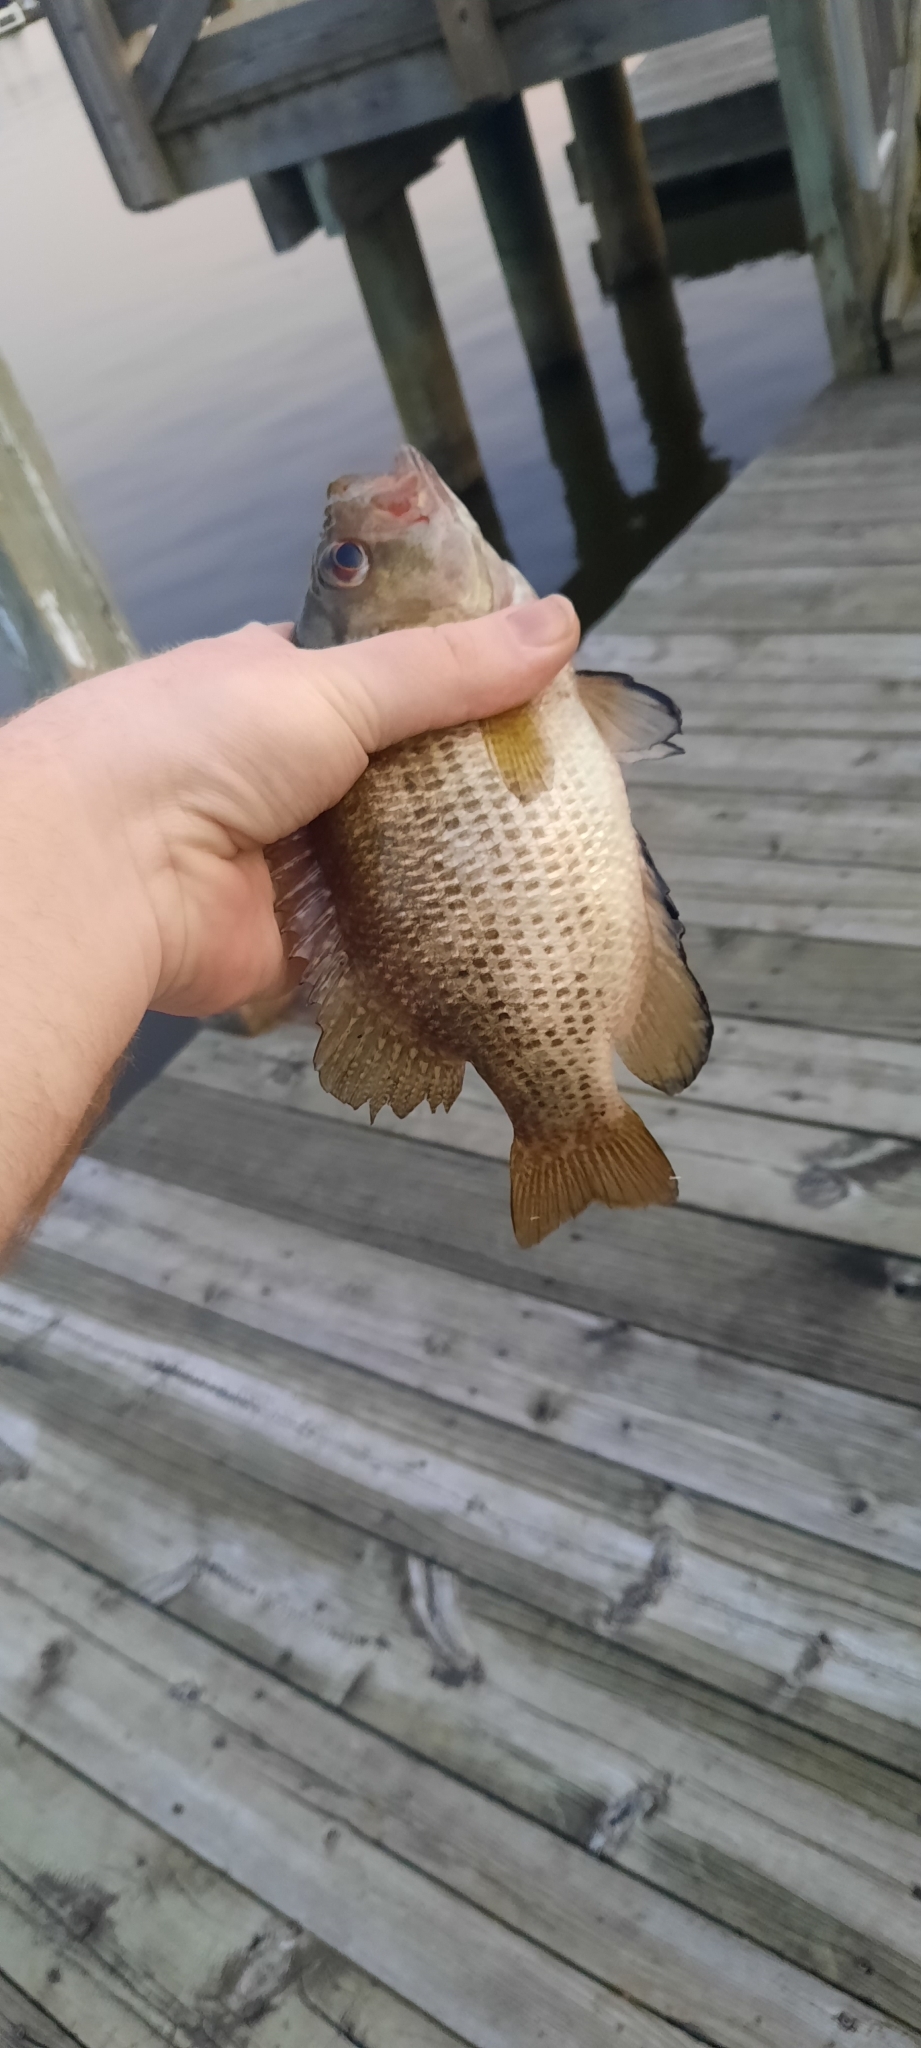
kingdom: Animalia
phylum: Chordata
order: Perciformes
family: Centrarchidae
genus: Ambloplites
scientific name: Ambloplites rupestris
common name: Rock bass
